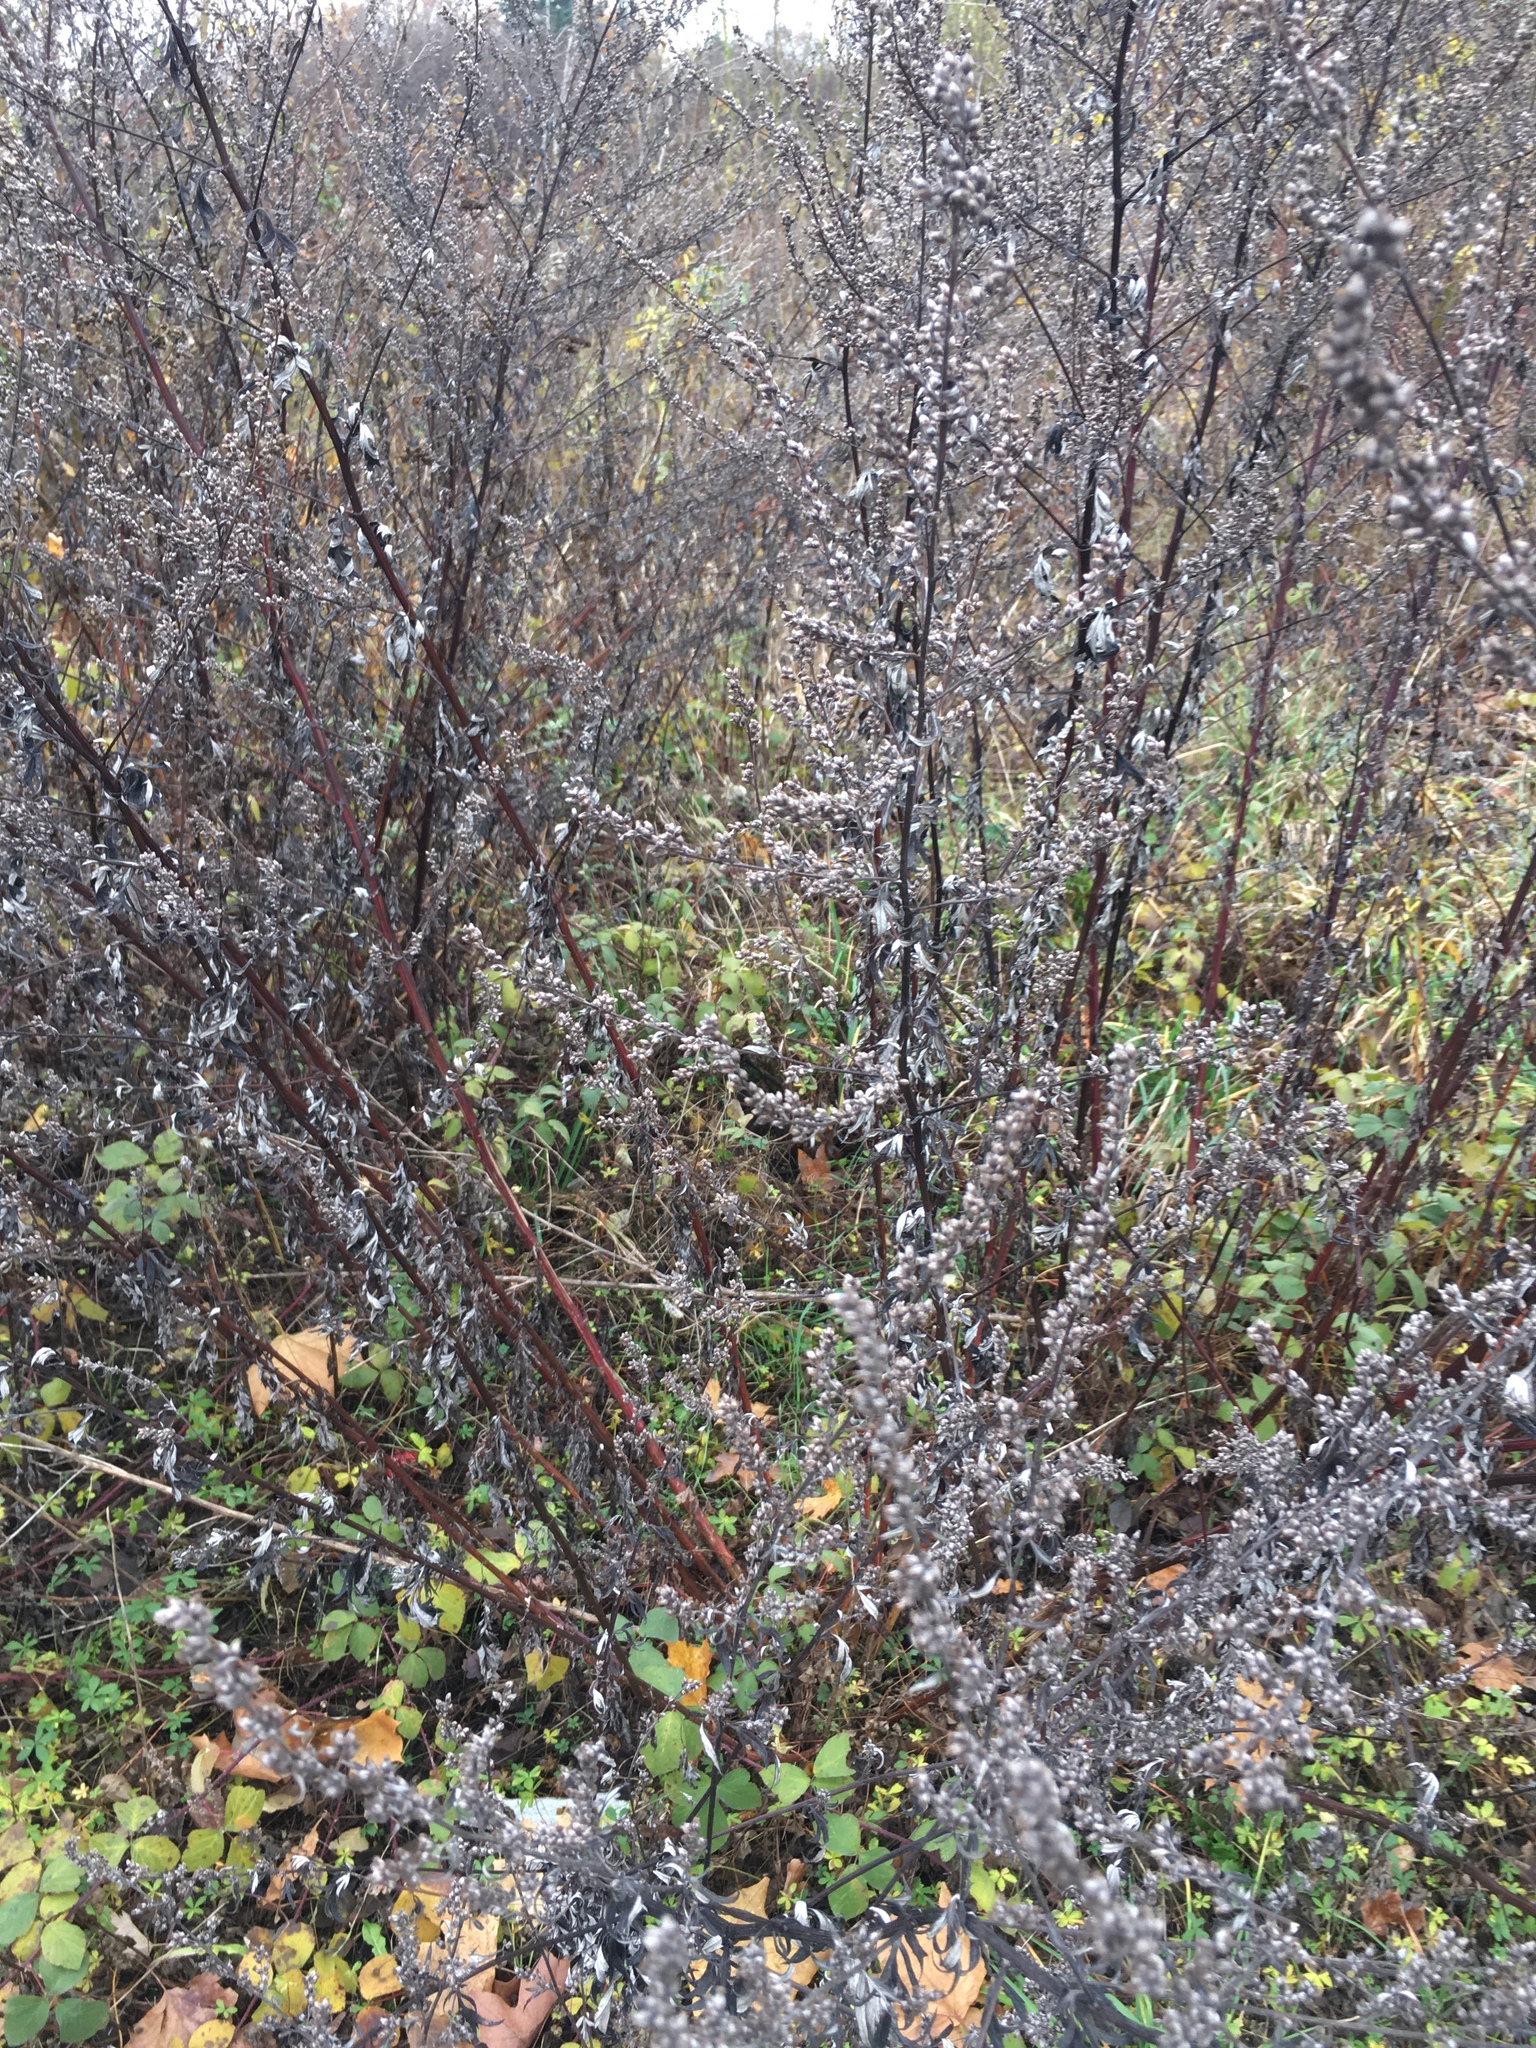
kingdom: Plantae
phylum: Tracheophyta
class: Magnoliopsida
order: Asterales
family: Asteraceae
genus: Artemisia
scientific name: Artemisia vulgaris
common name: Mugwort
